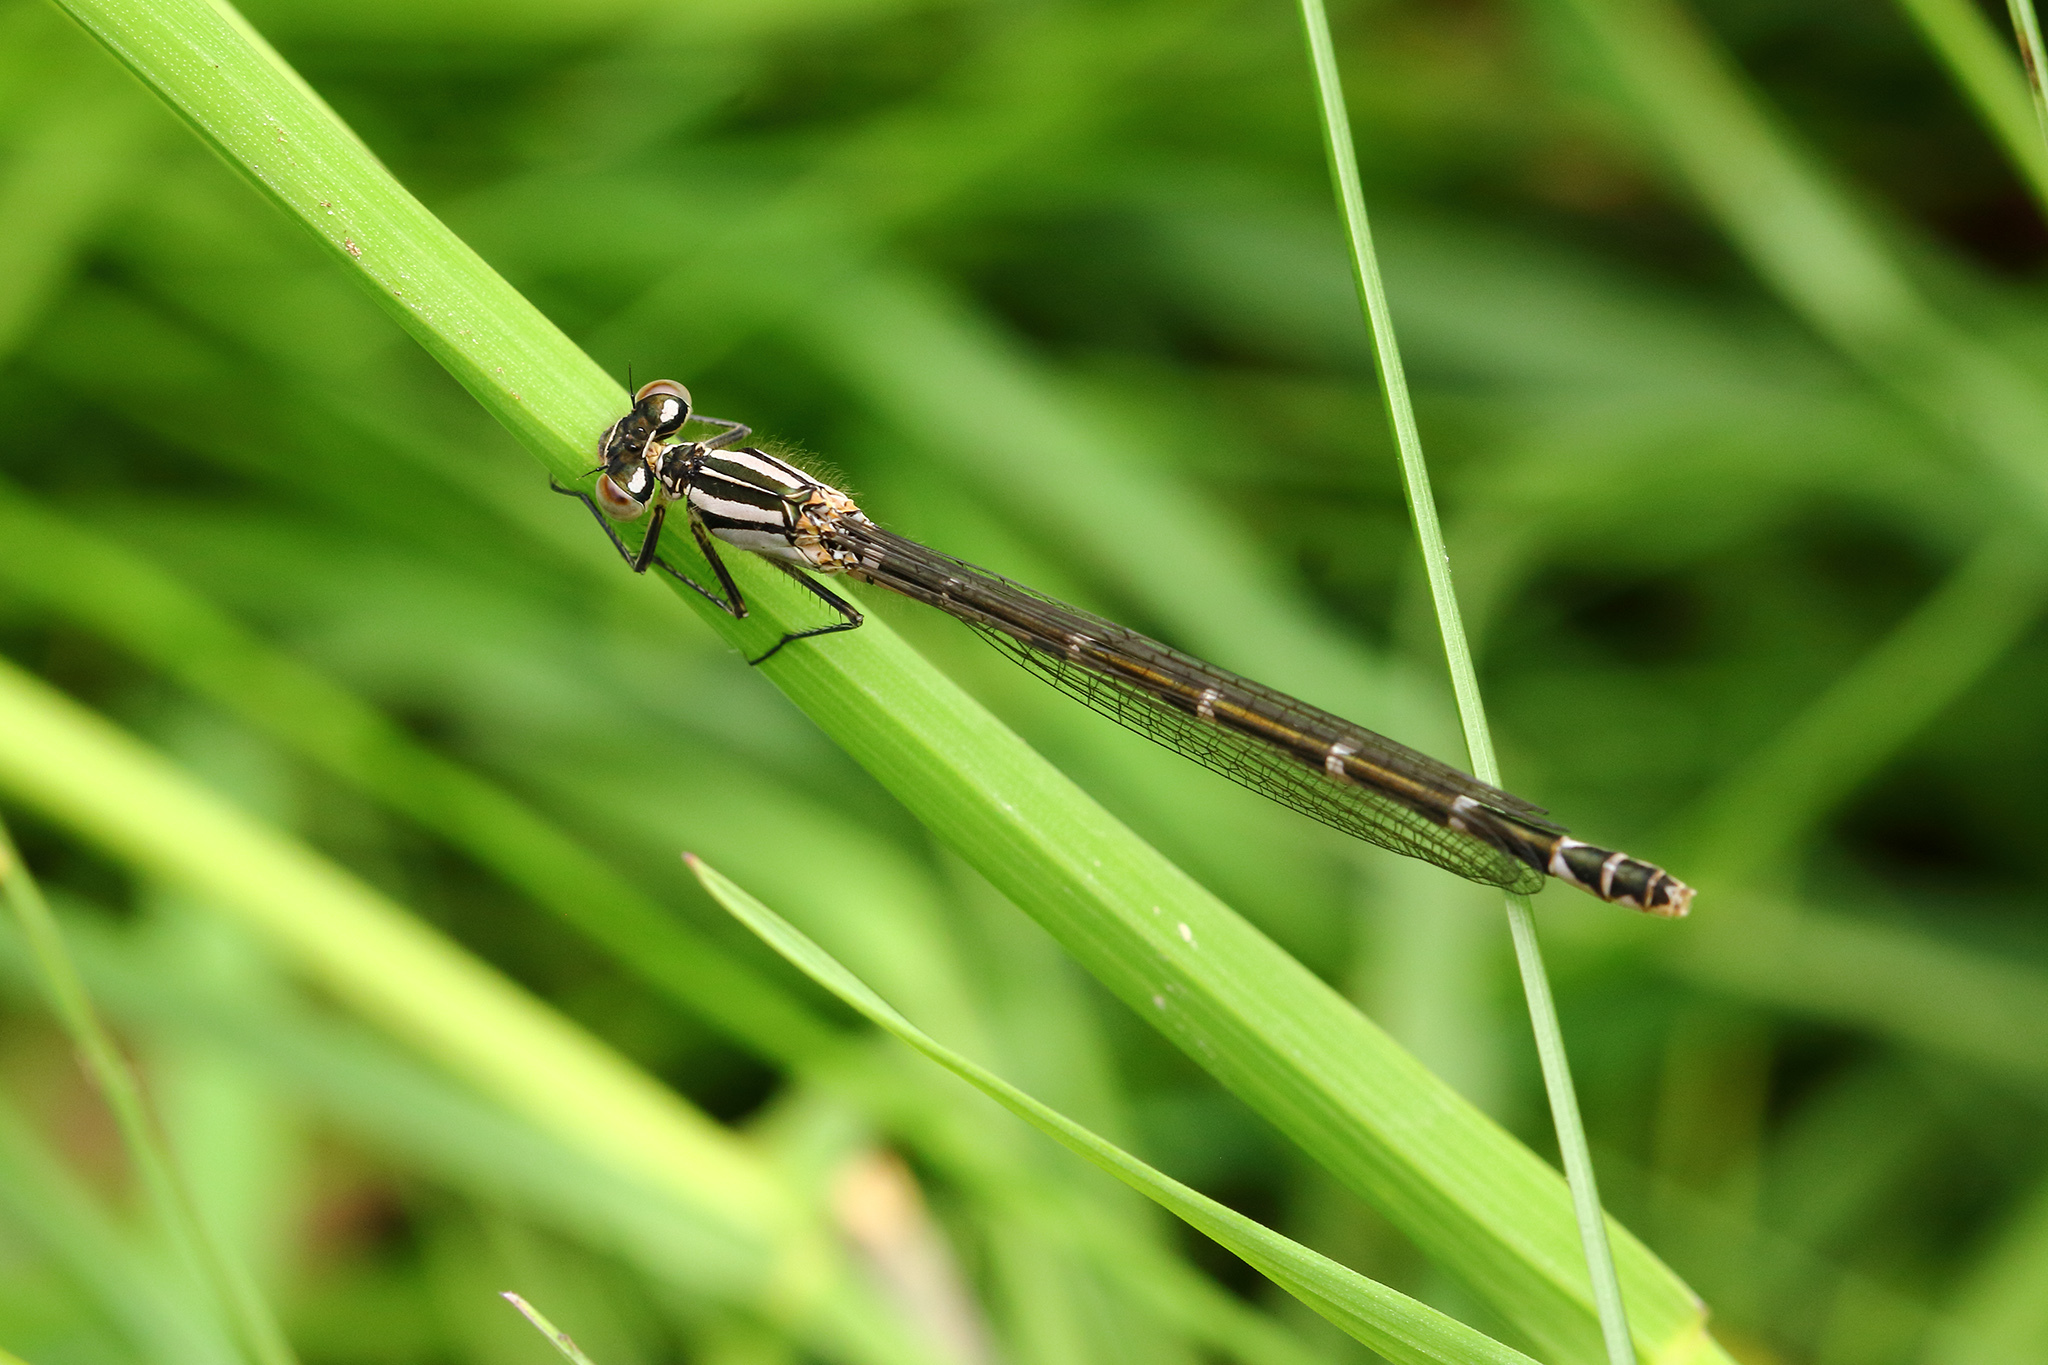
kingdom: Animalia
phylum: Arthropoda
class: Insecta
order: Odonata
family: Coenagrionidae
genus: Enallagma
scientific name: Enallagma cyathigerum
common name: Common blue damselfly
